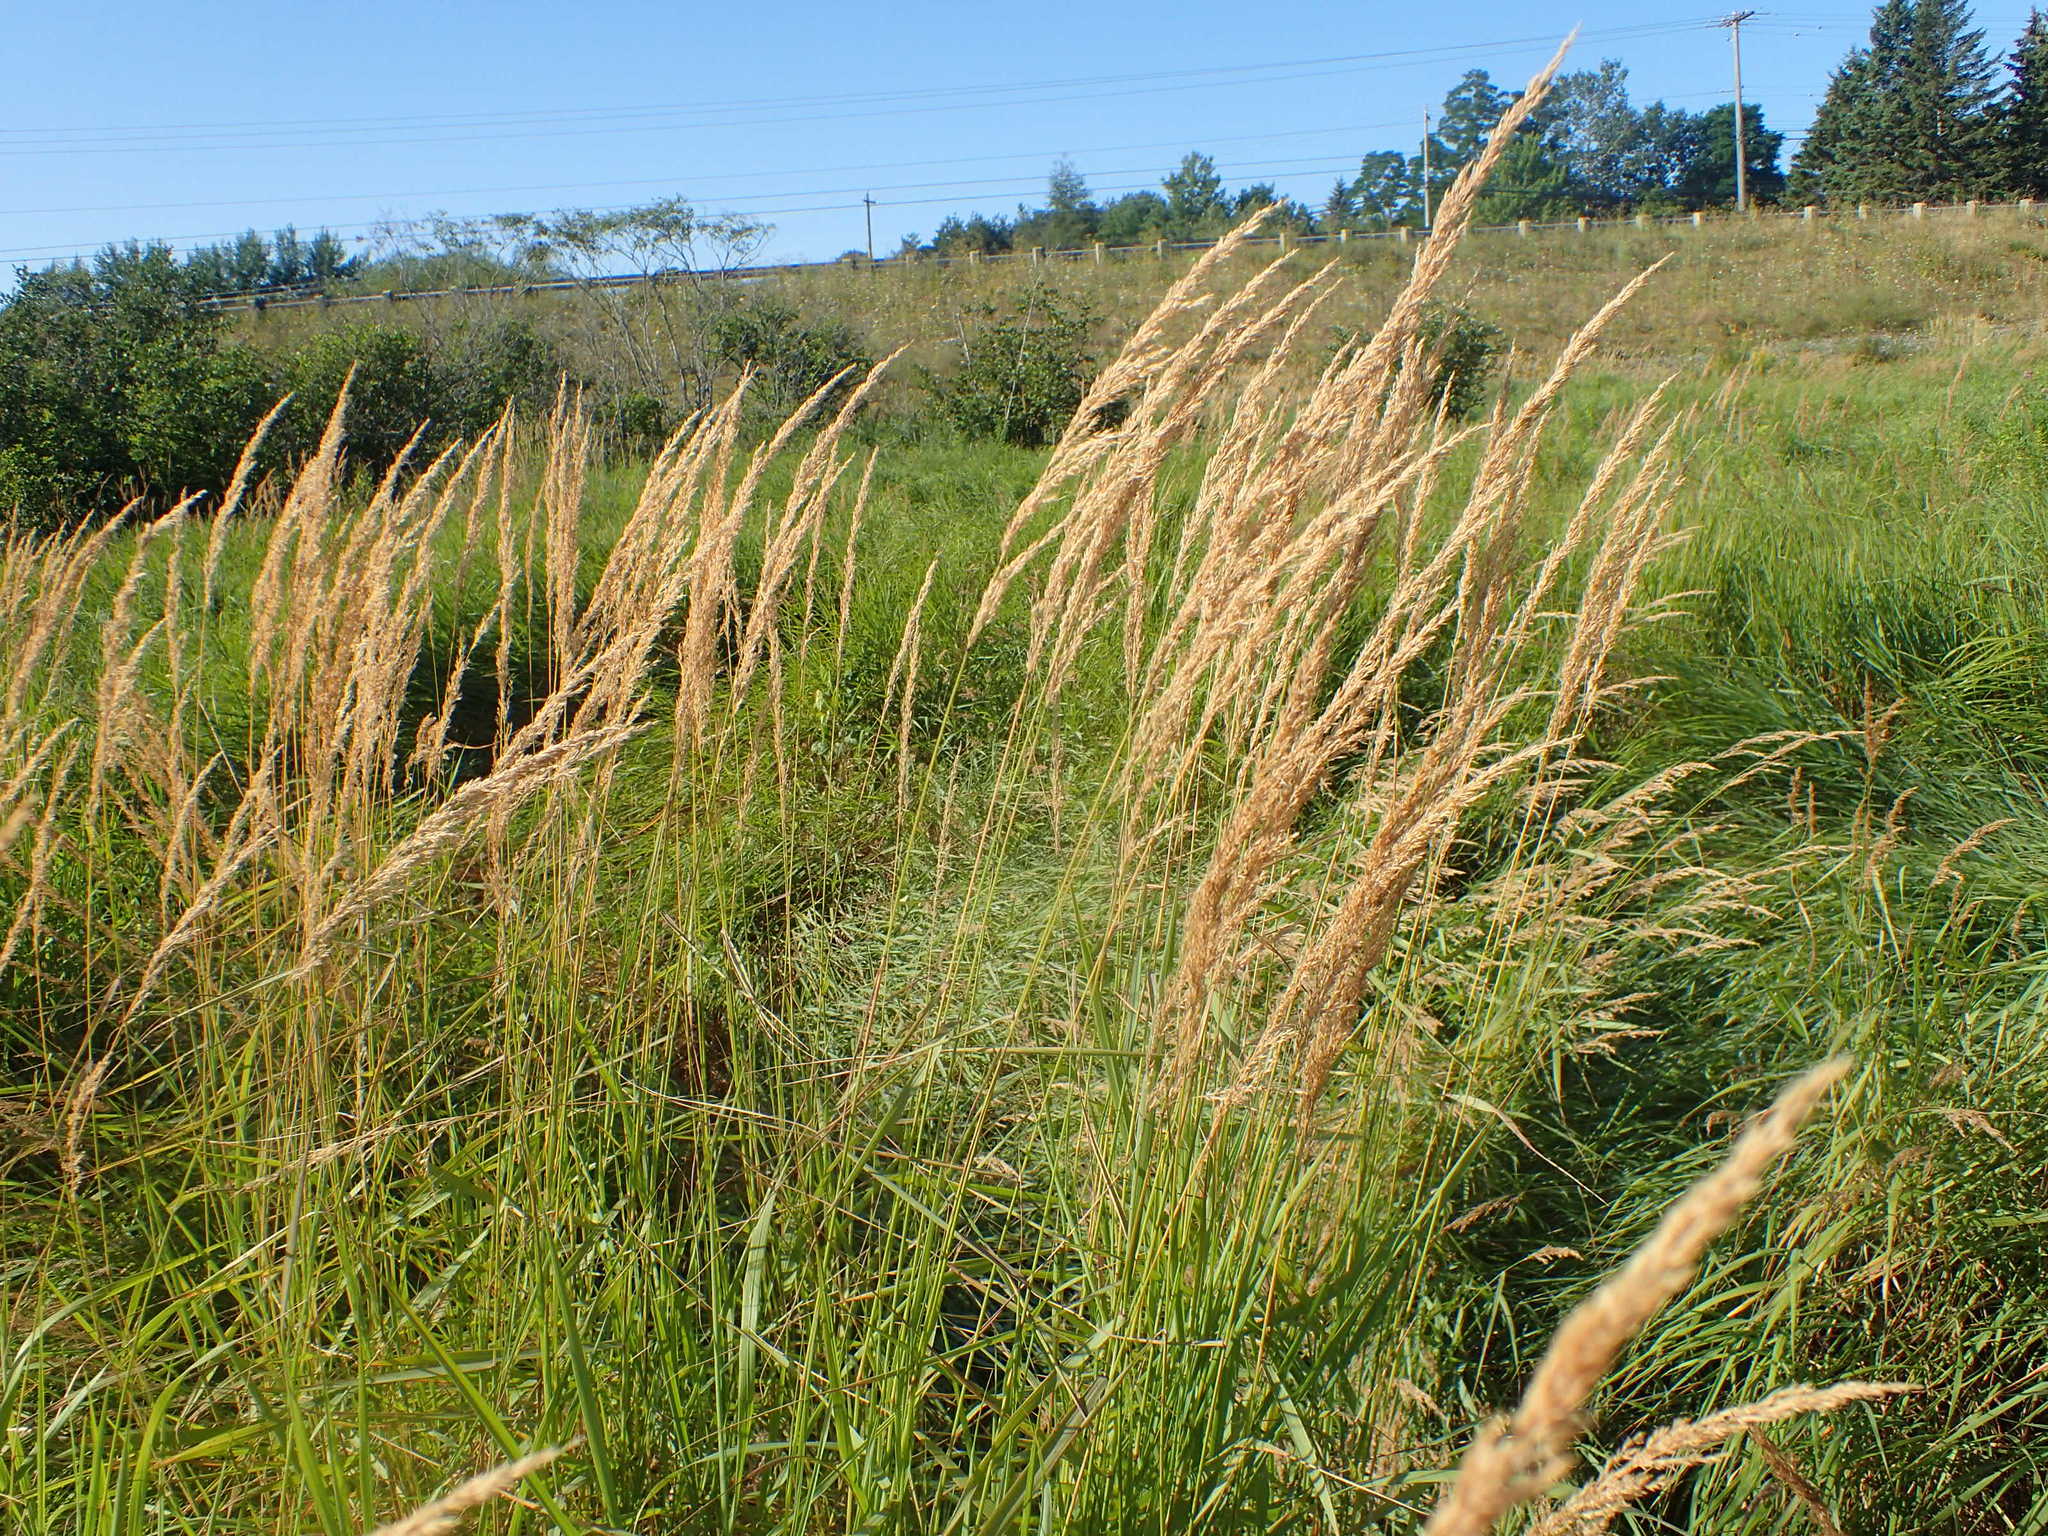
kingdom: Plantae
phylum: Tracheophyta
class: Liliopsida
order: Poales
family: Poaceae
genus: Calamagrostis
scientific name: Calamagrostis canadensis
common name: Canada bluejoint
